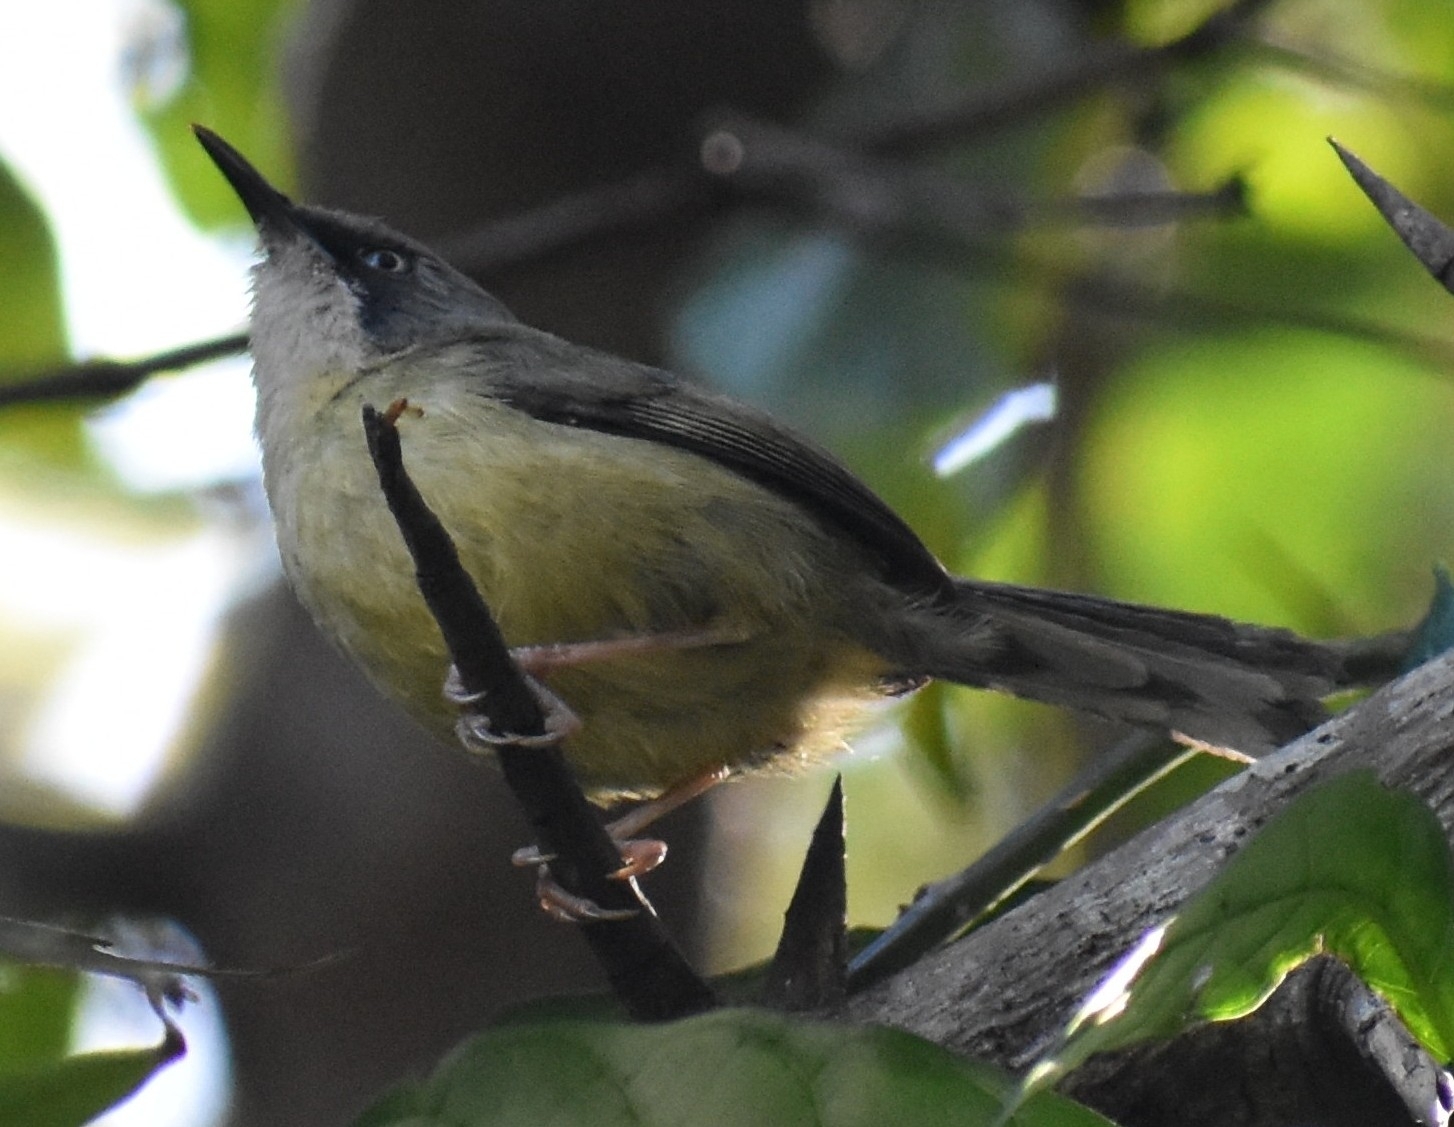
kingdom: Animalia
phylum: Chordata
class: Aves
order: Passeriformes
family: Cisticolidae
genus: Apalis
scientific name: Apalis thoracica
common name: Bar-throated apalis
